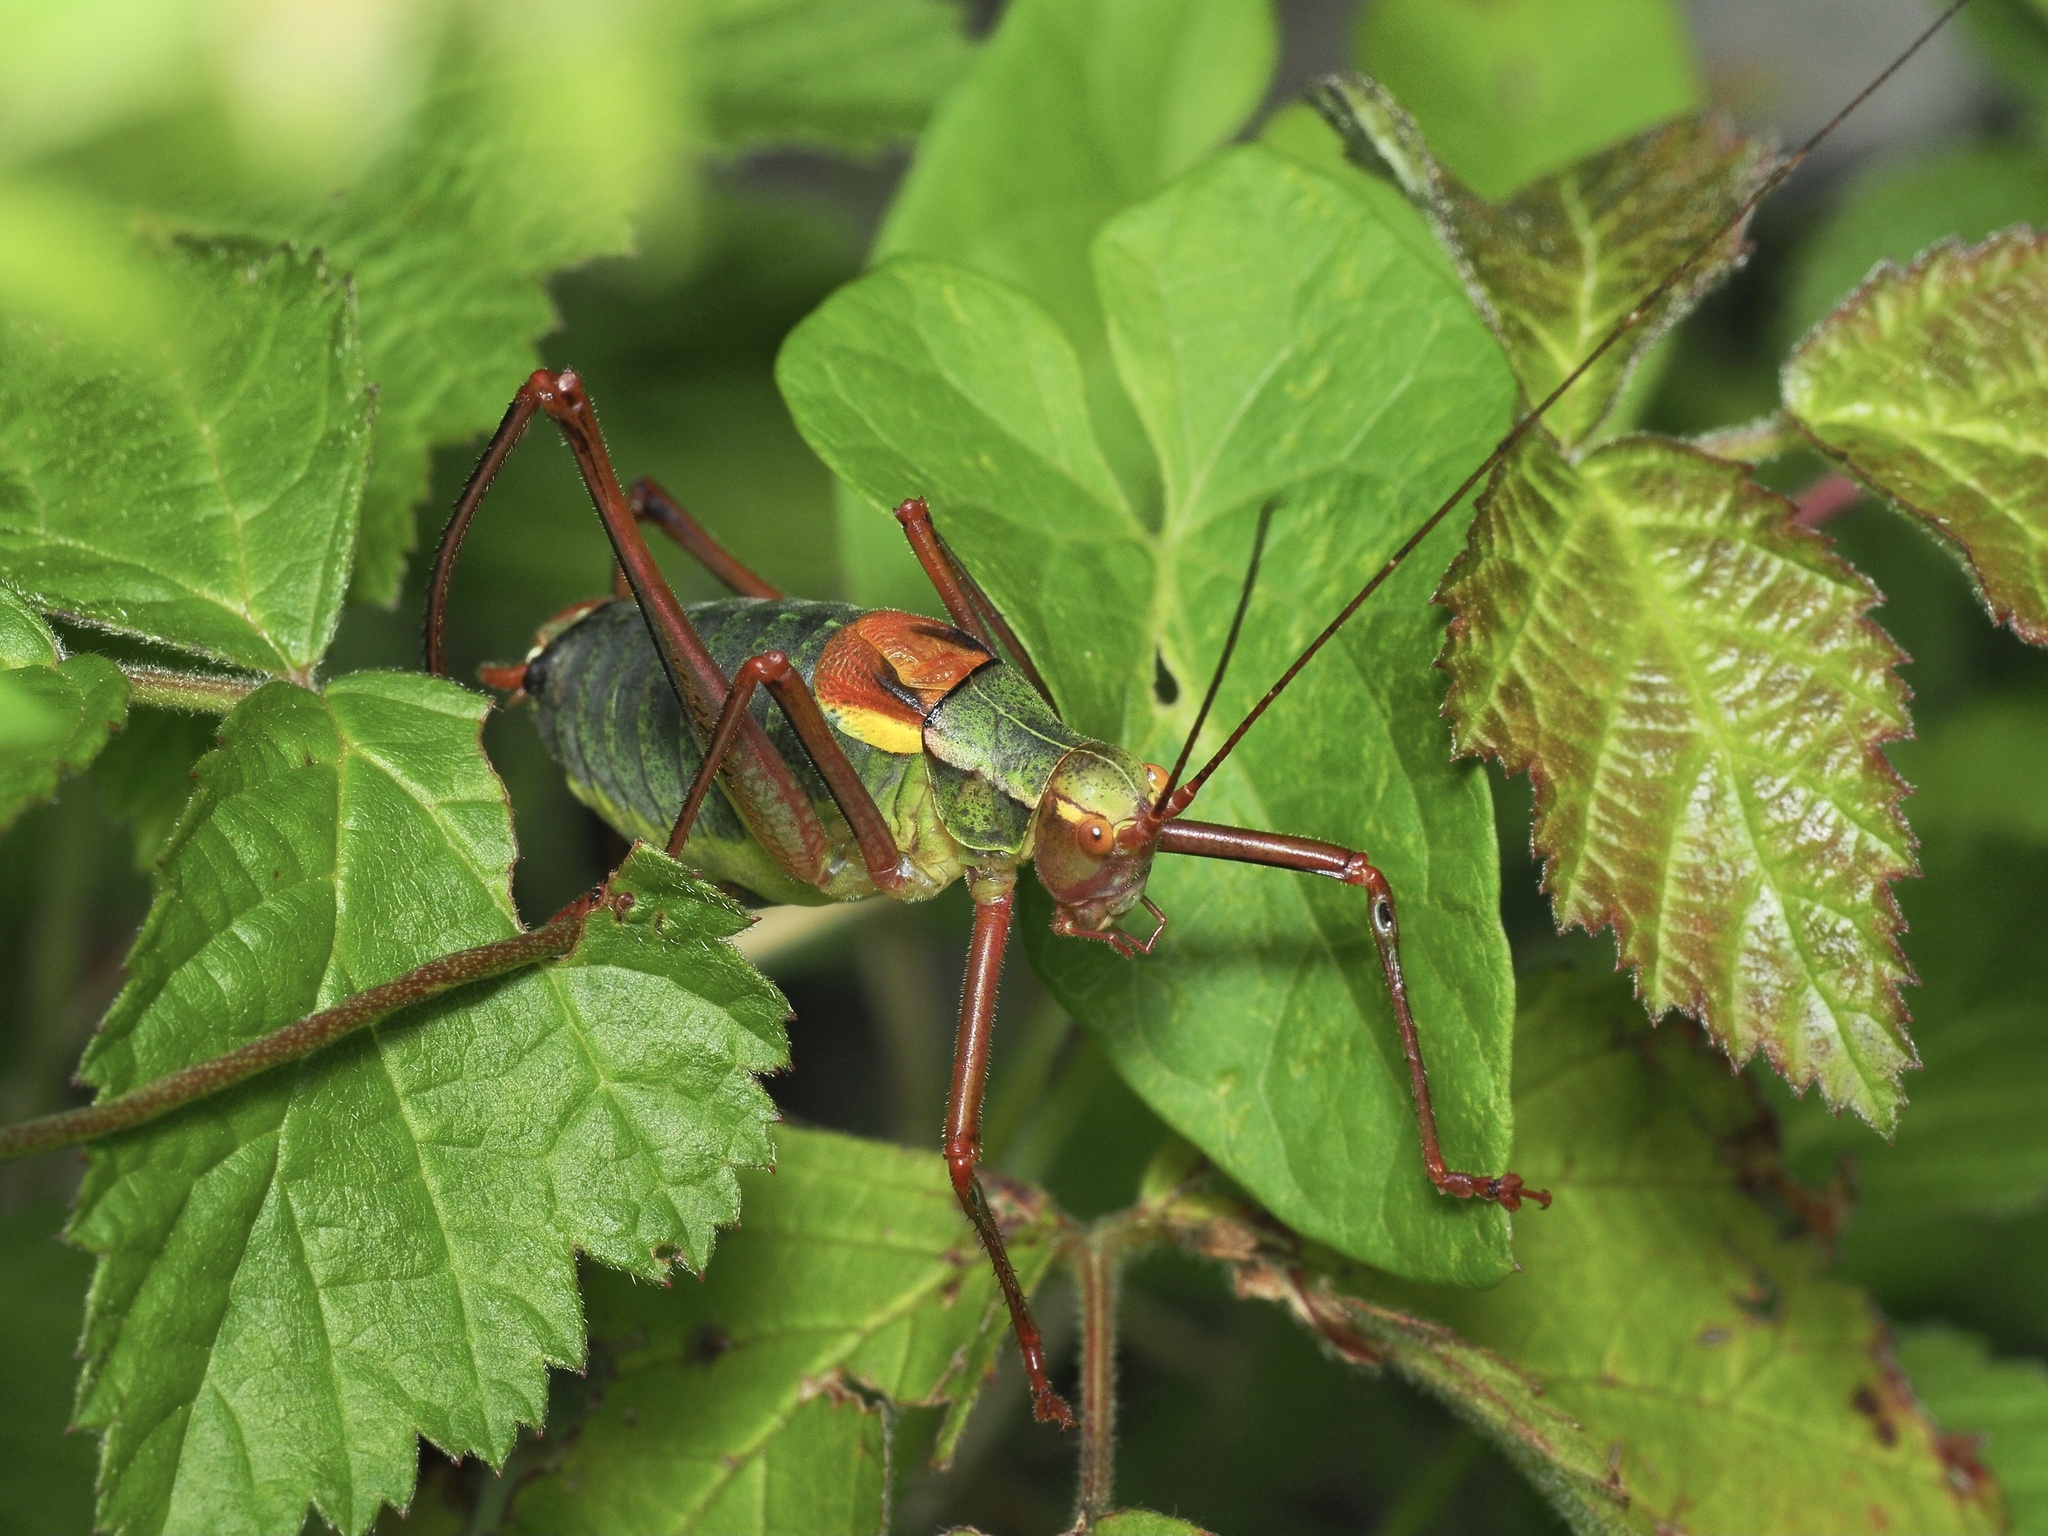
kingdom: Animalia
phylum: Arthropoda
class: Insecta
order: Orthoptera
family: Tettigoniidae
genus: Barbitistes
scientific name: Barbitistes serricauda
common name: Saw-tailed bush-cricket
